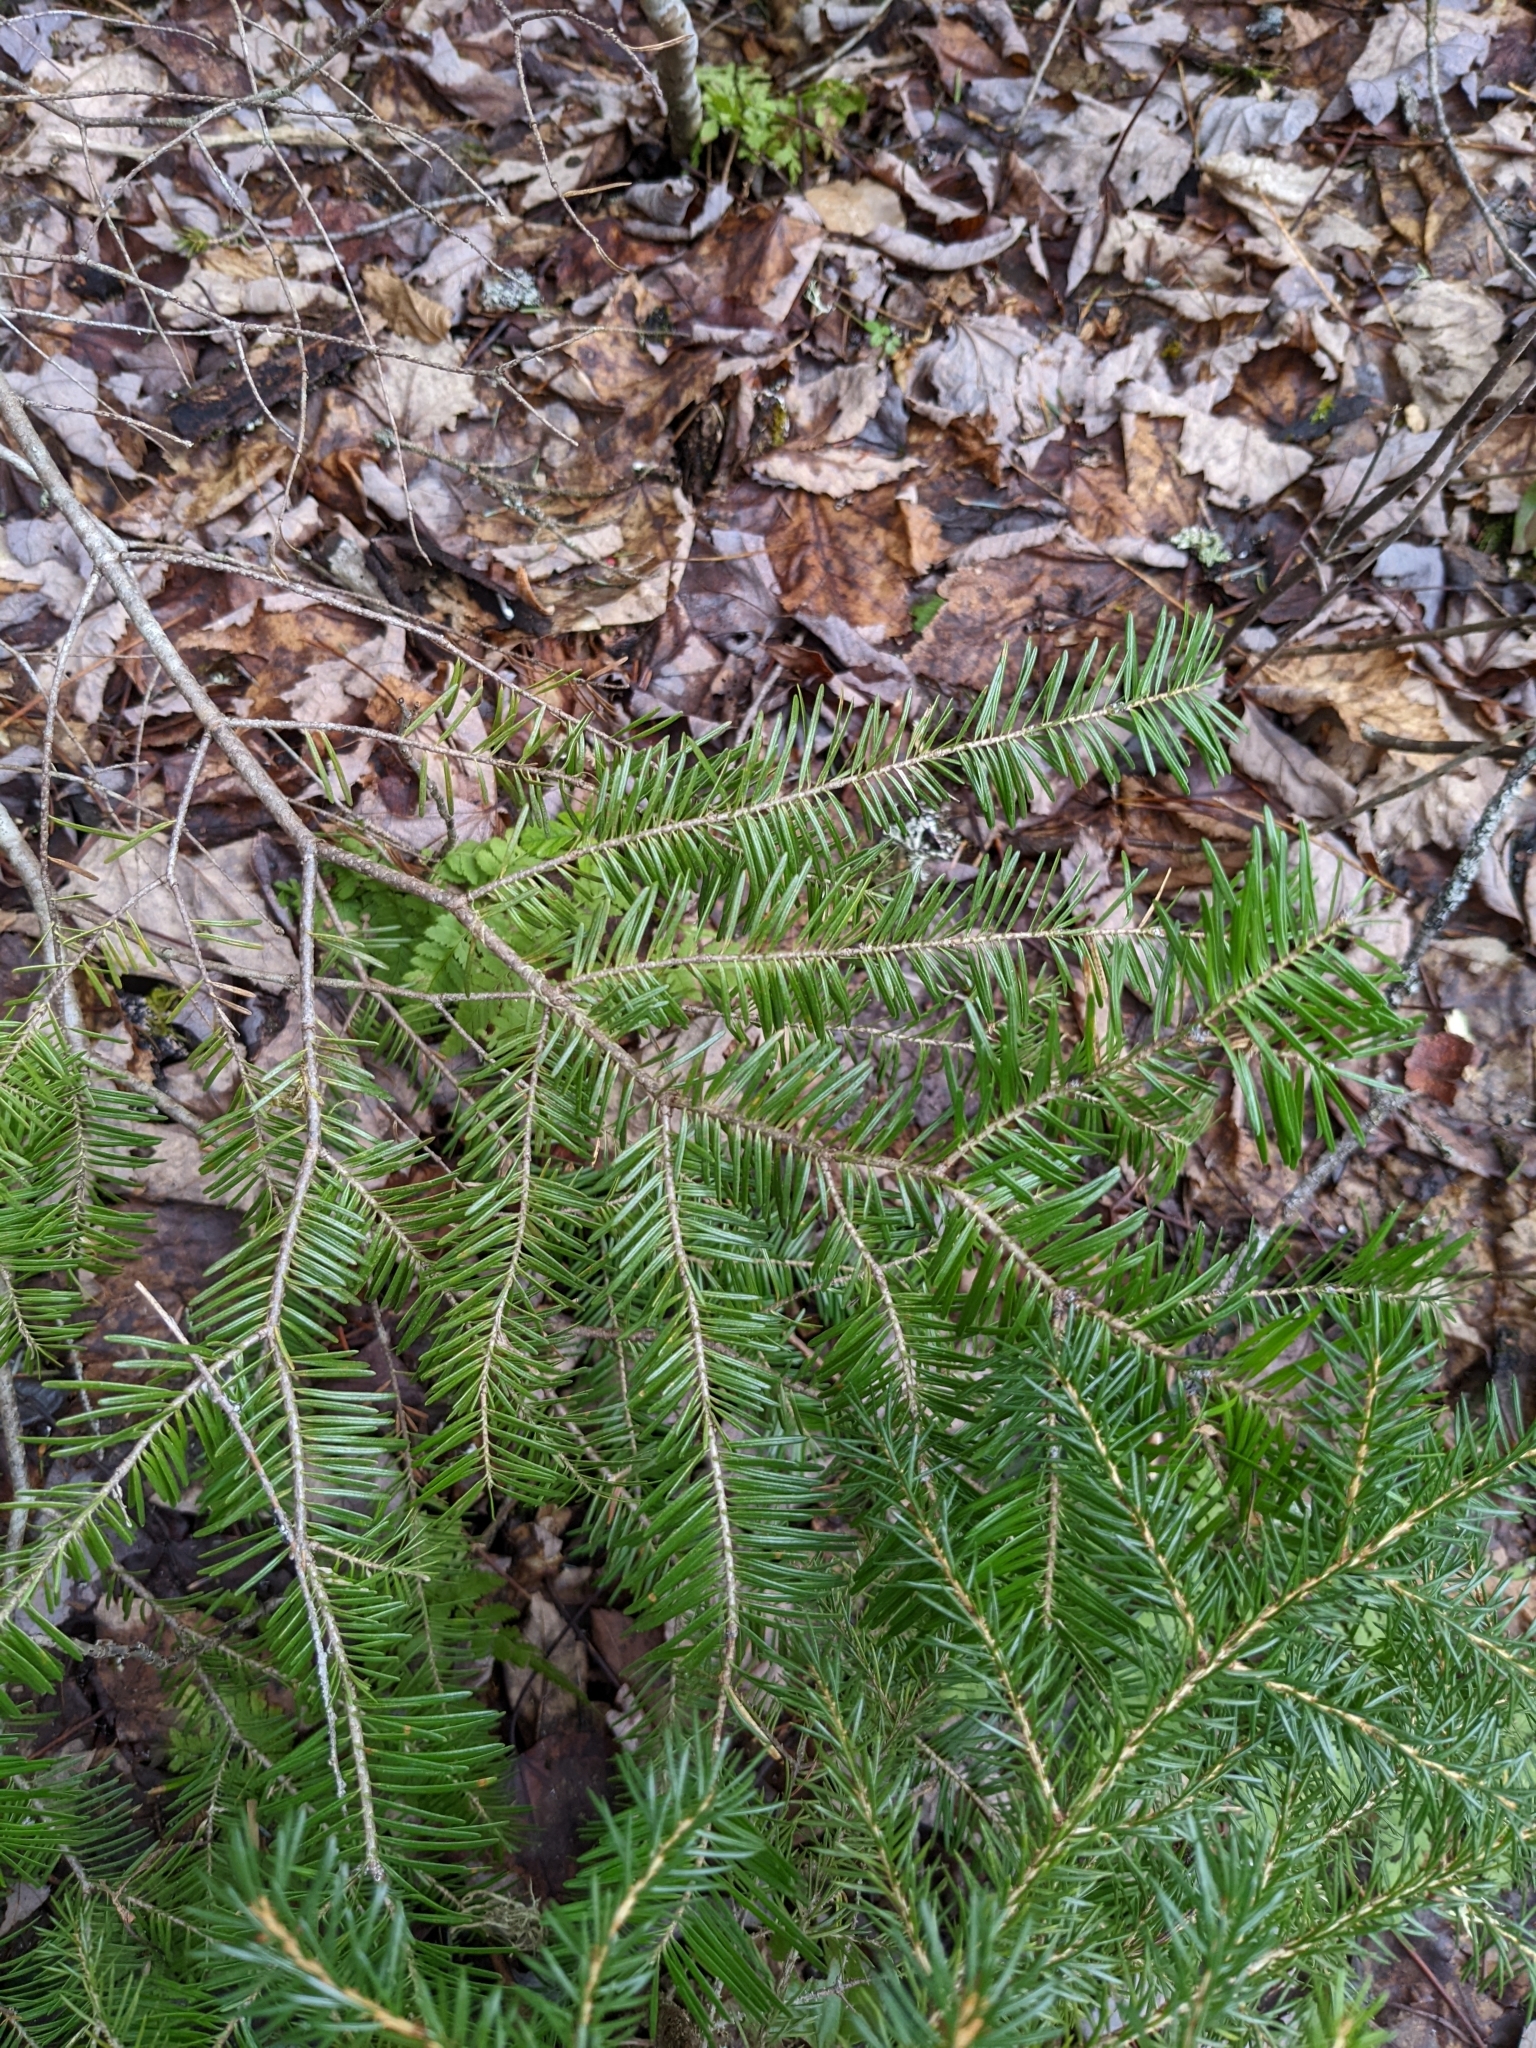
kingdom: Plantae
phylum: Tracheophyta
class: Pinopsida
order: Pinales
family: Pinaceae
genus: Abies
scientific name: Abies balsamea
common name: Balsam fir
